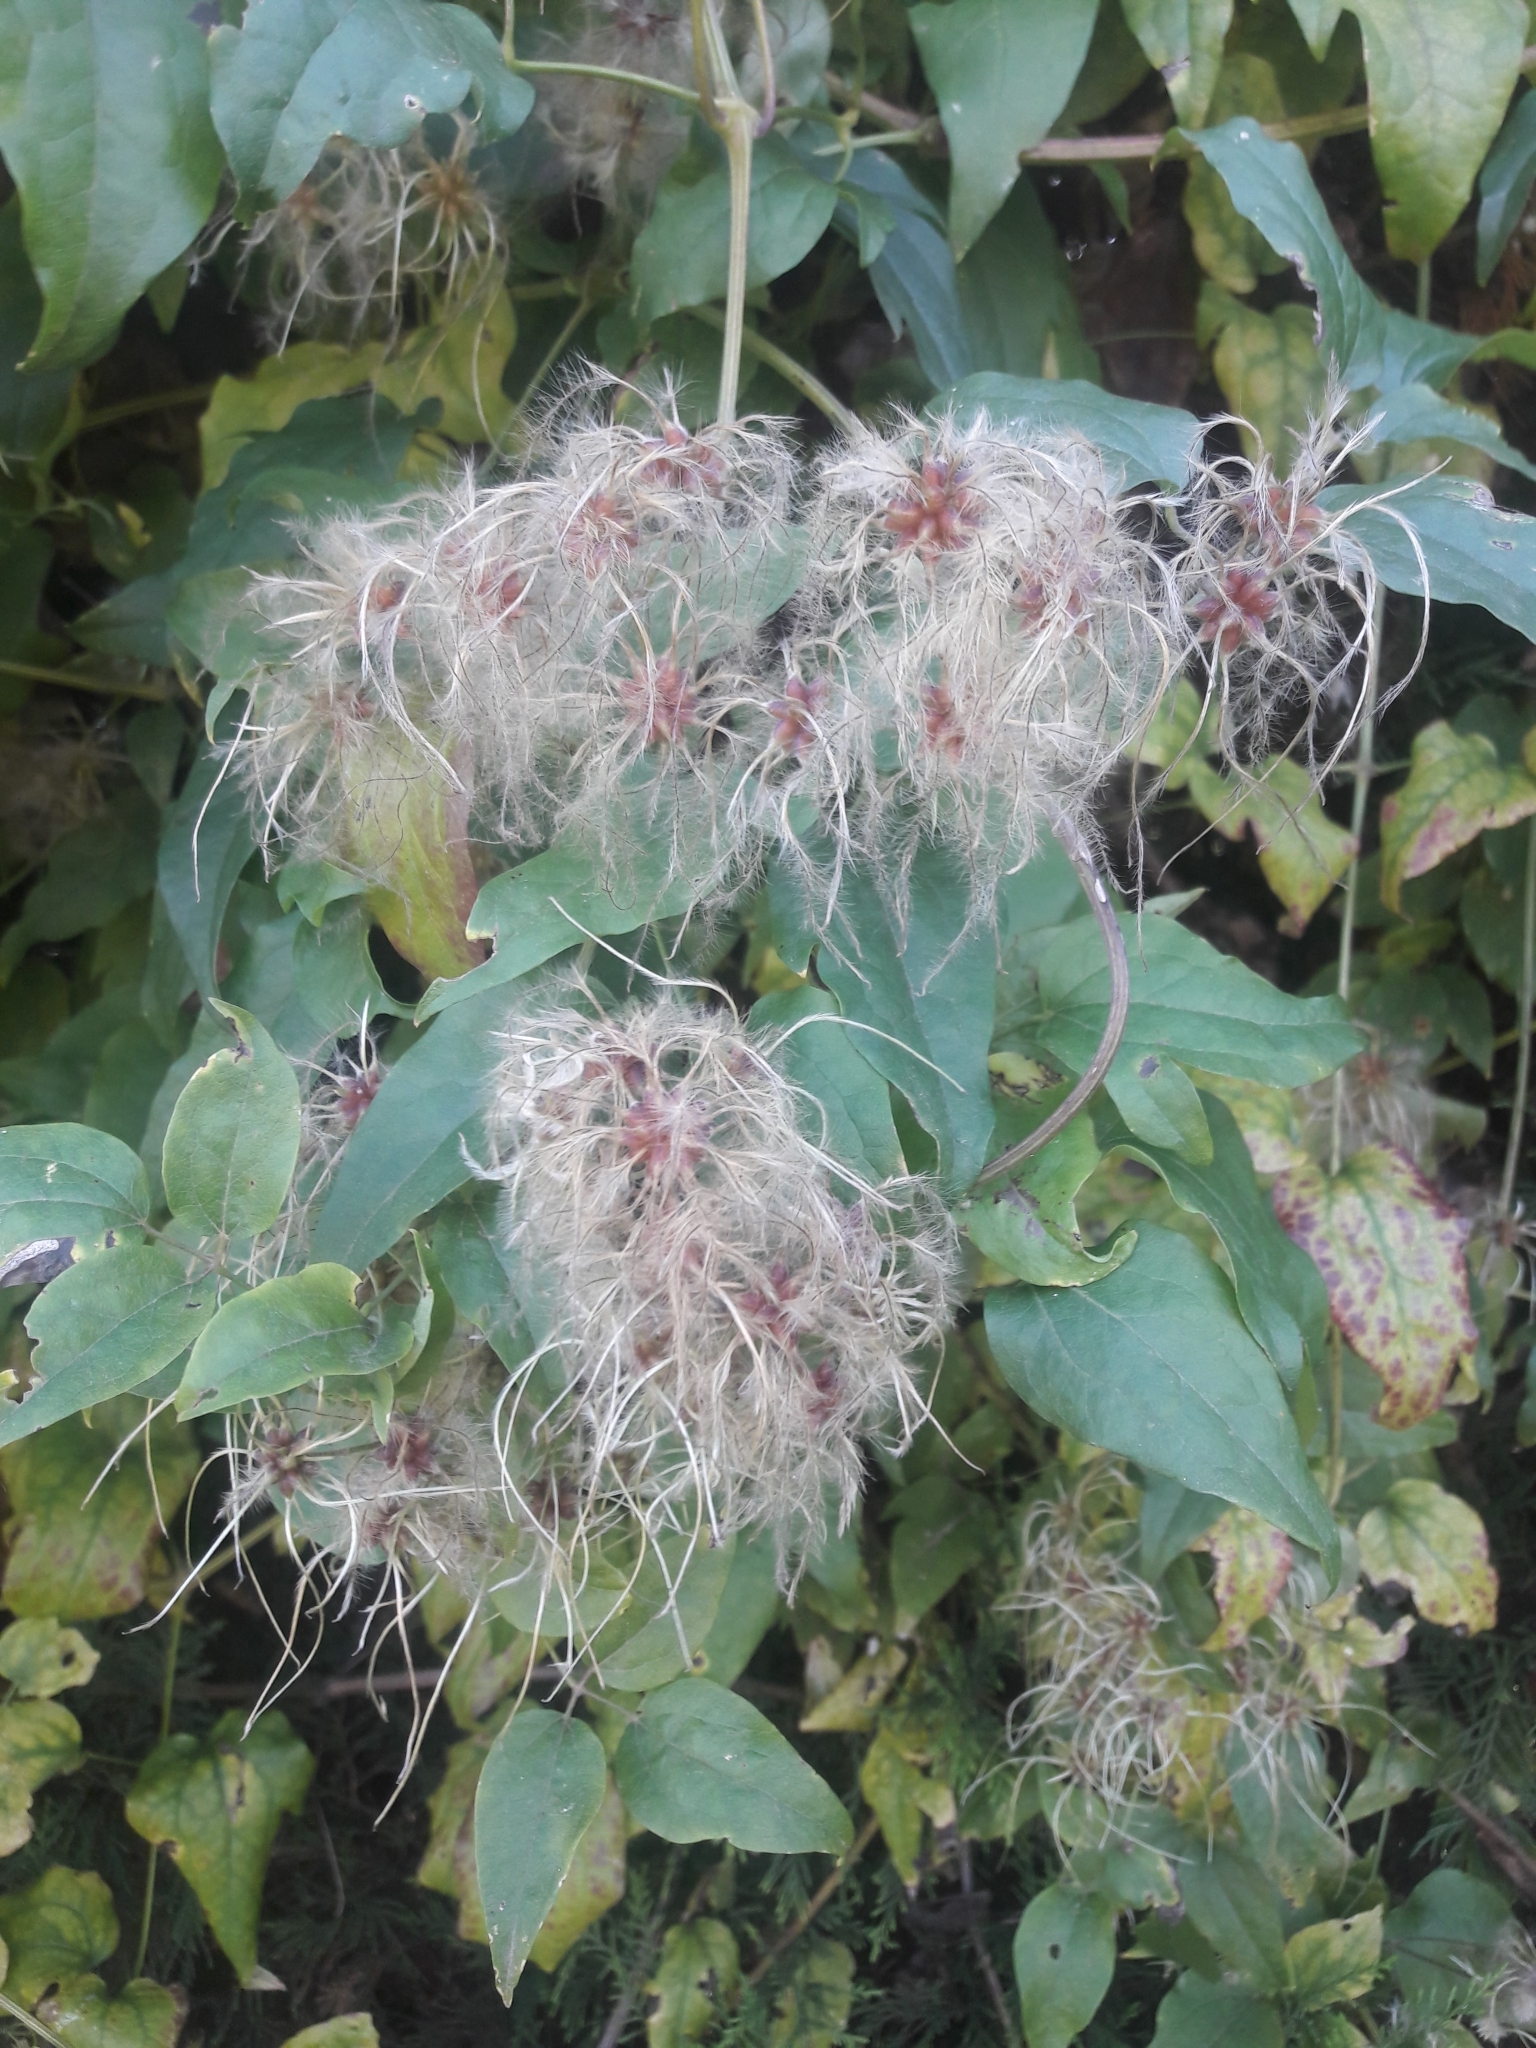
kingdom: Plantae
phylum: Tracheophyta
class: Magnoliopsida
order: Ranunculales
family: Ranunculaceae
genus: Clematis
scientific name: Clematis vitalba
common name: Evergreen clematis
